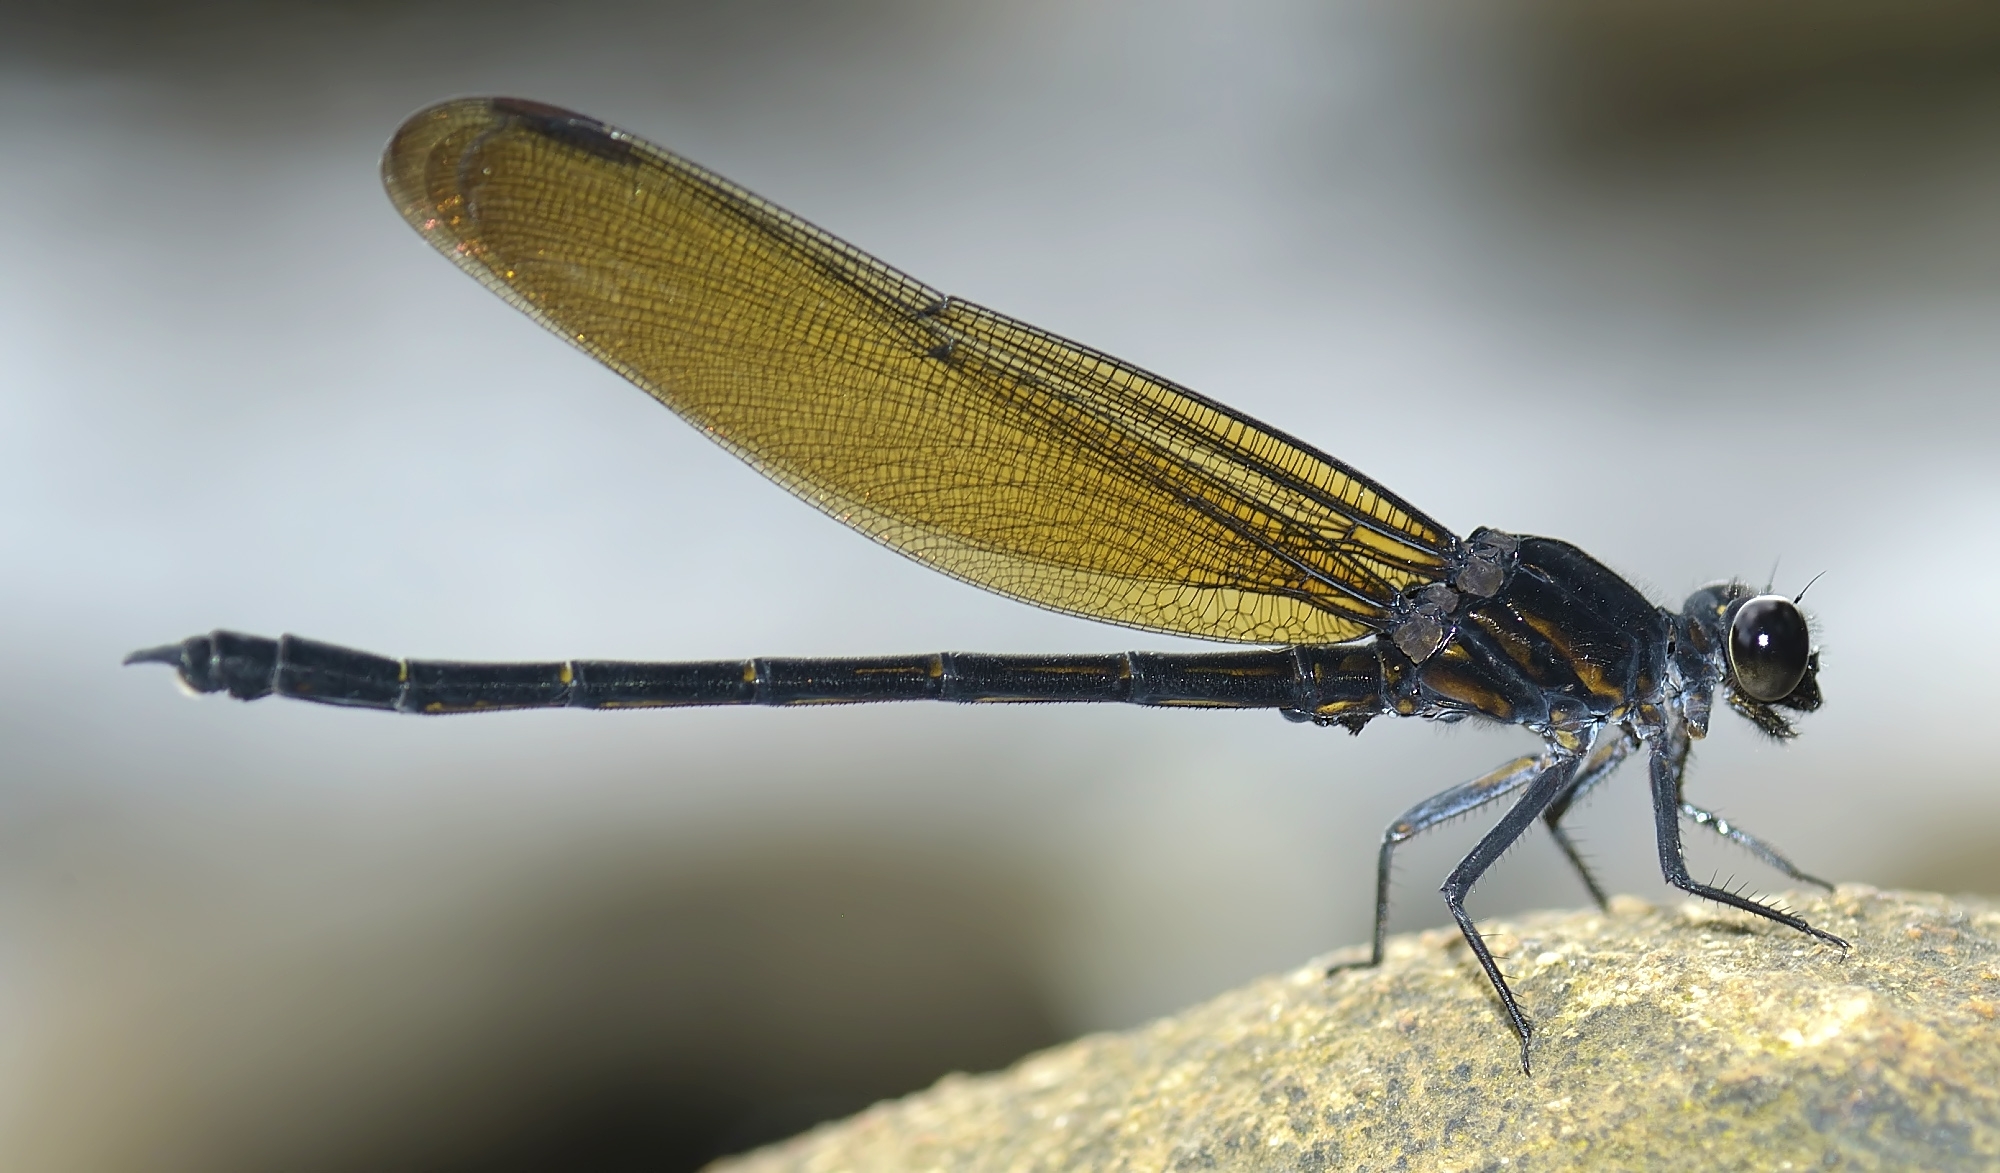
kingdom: Animalia
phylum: Arthropoda
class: Insecta
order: Odonata
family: Euphaeidae
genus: Dysphaea
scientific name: Dysphaea ethela
